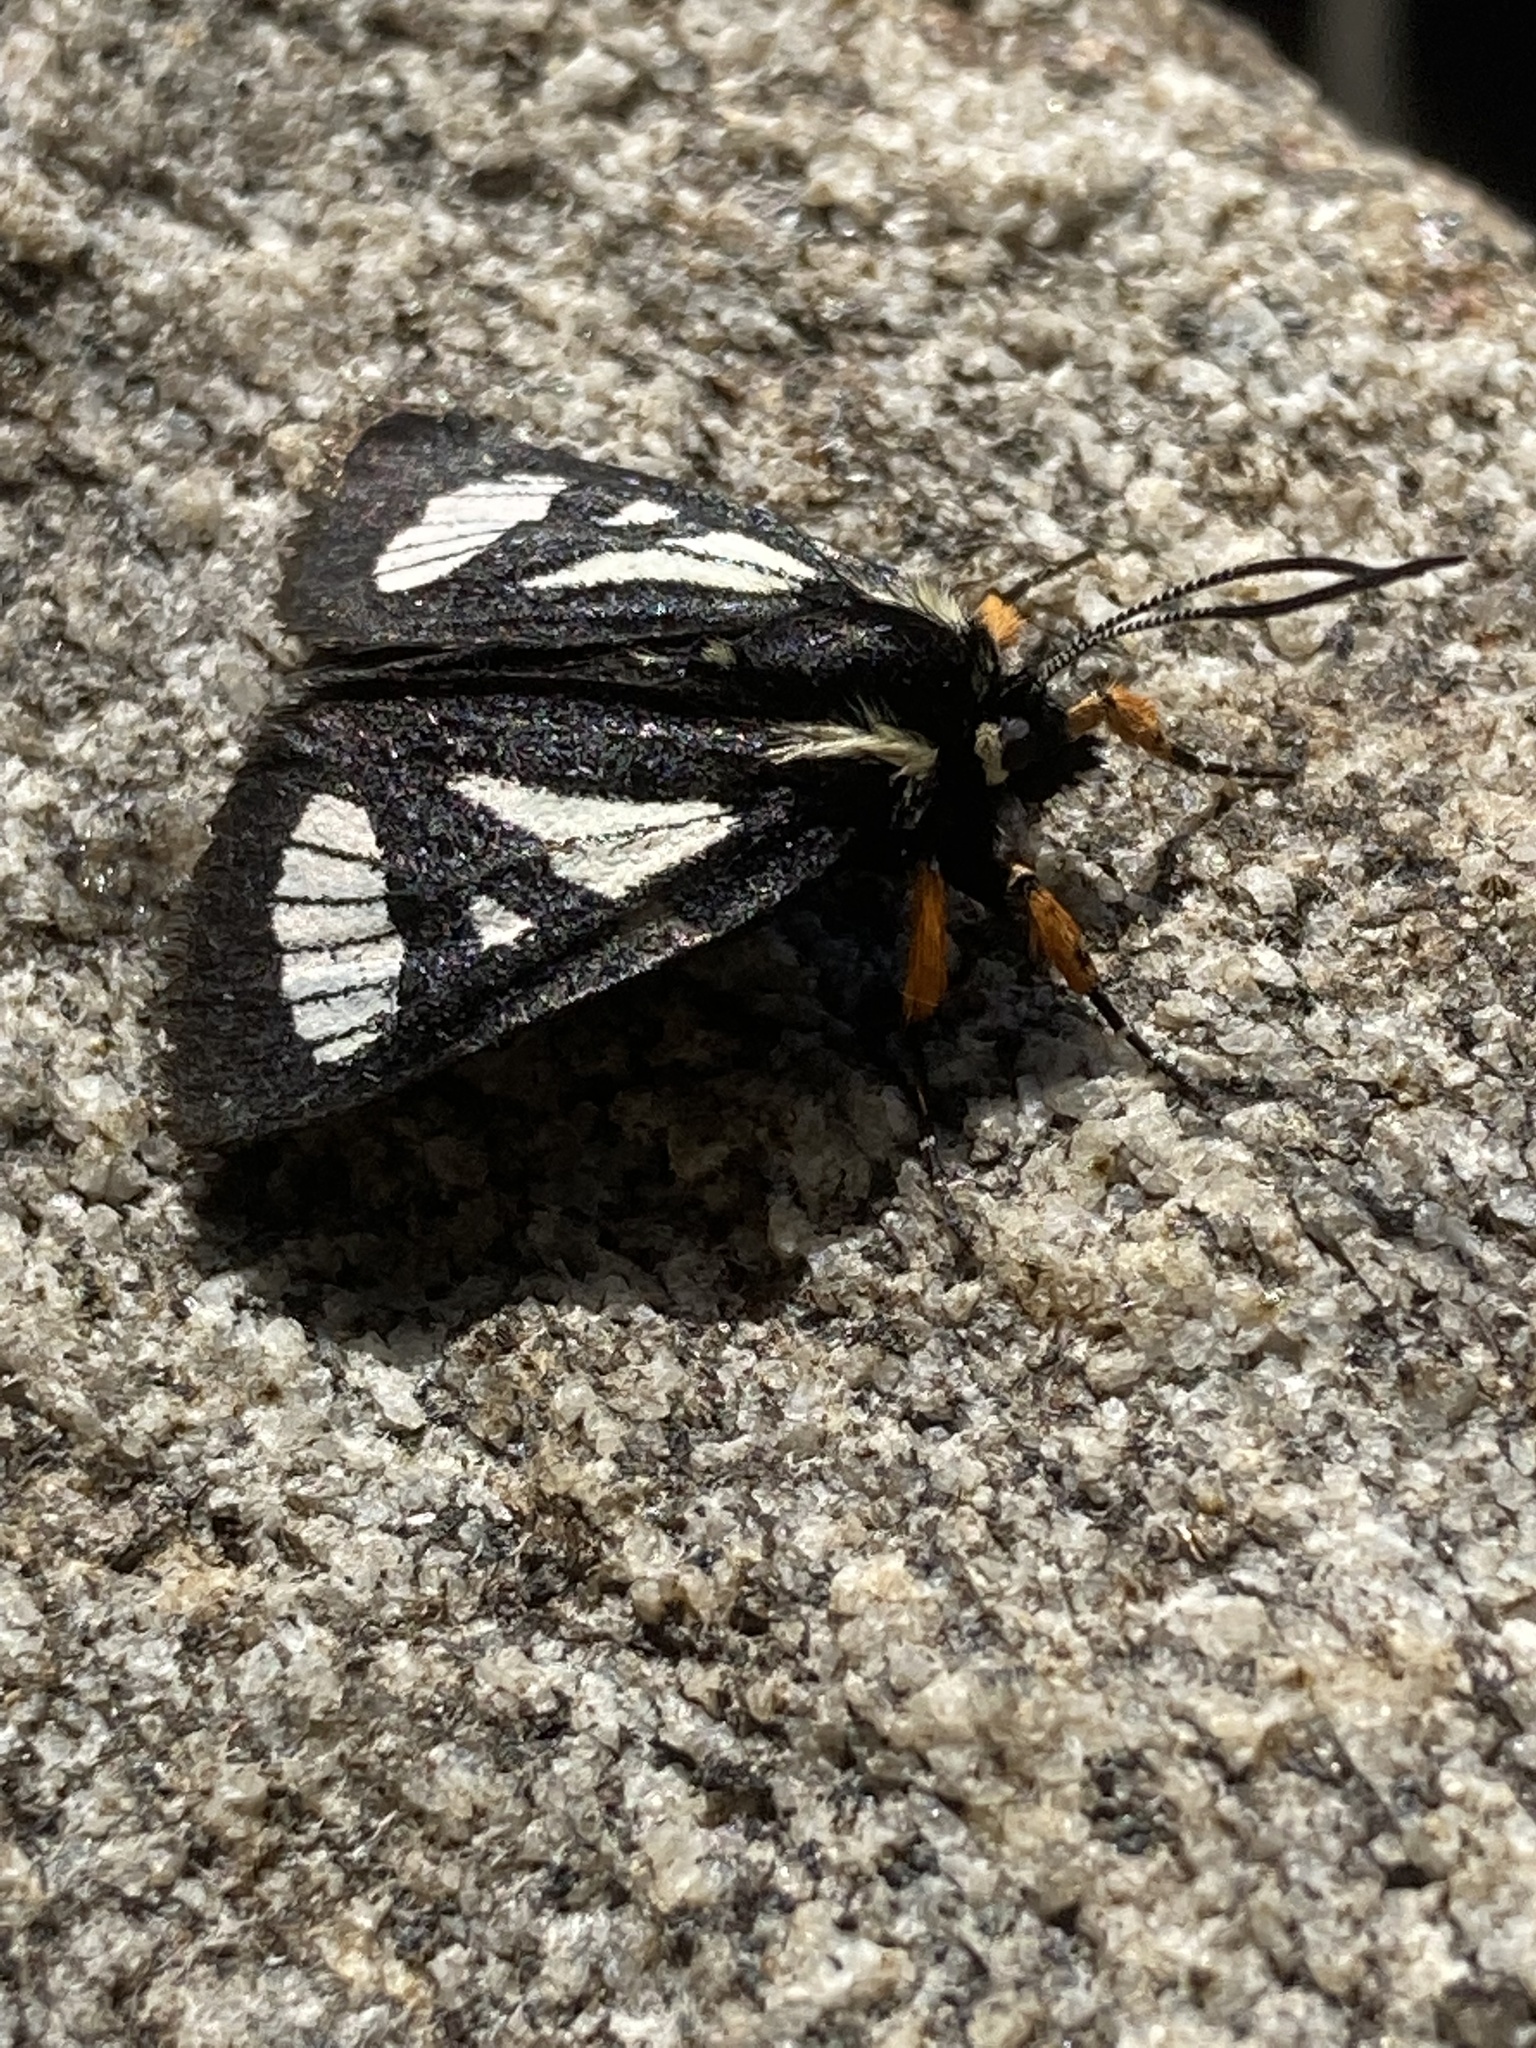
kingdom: Animalia
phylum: Arthropoda
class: Insecta
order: Lepidoptera
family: Noctuidae
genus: Alypia
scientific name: Alypia maccullochii
